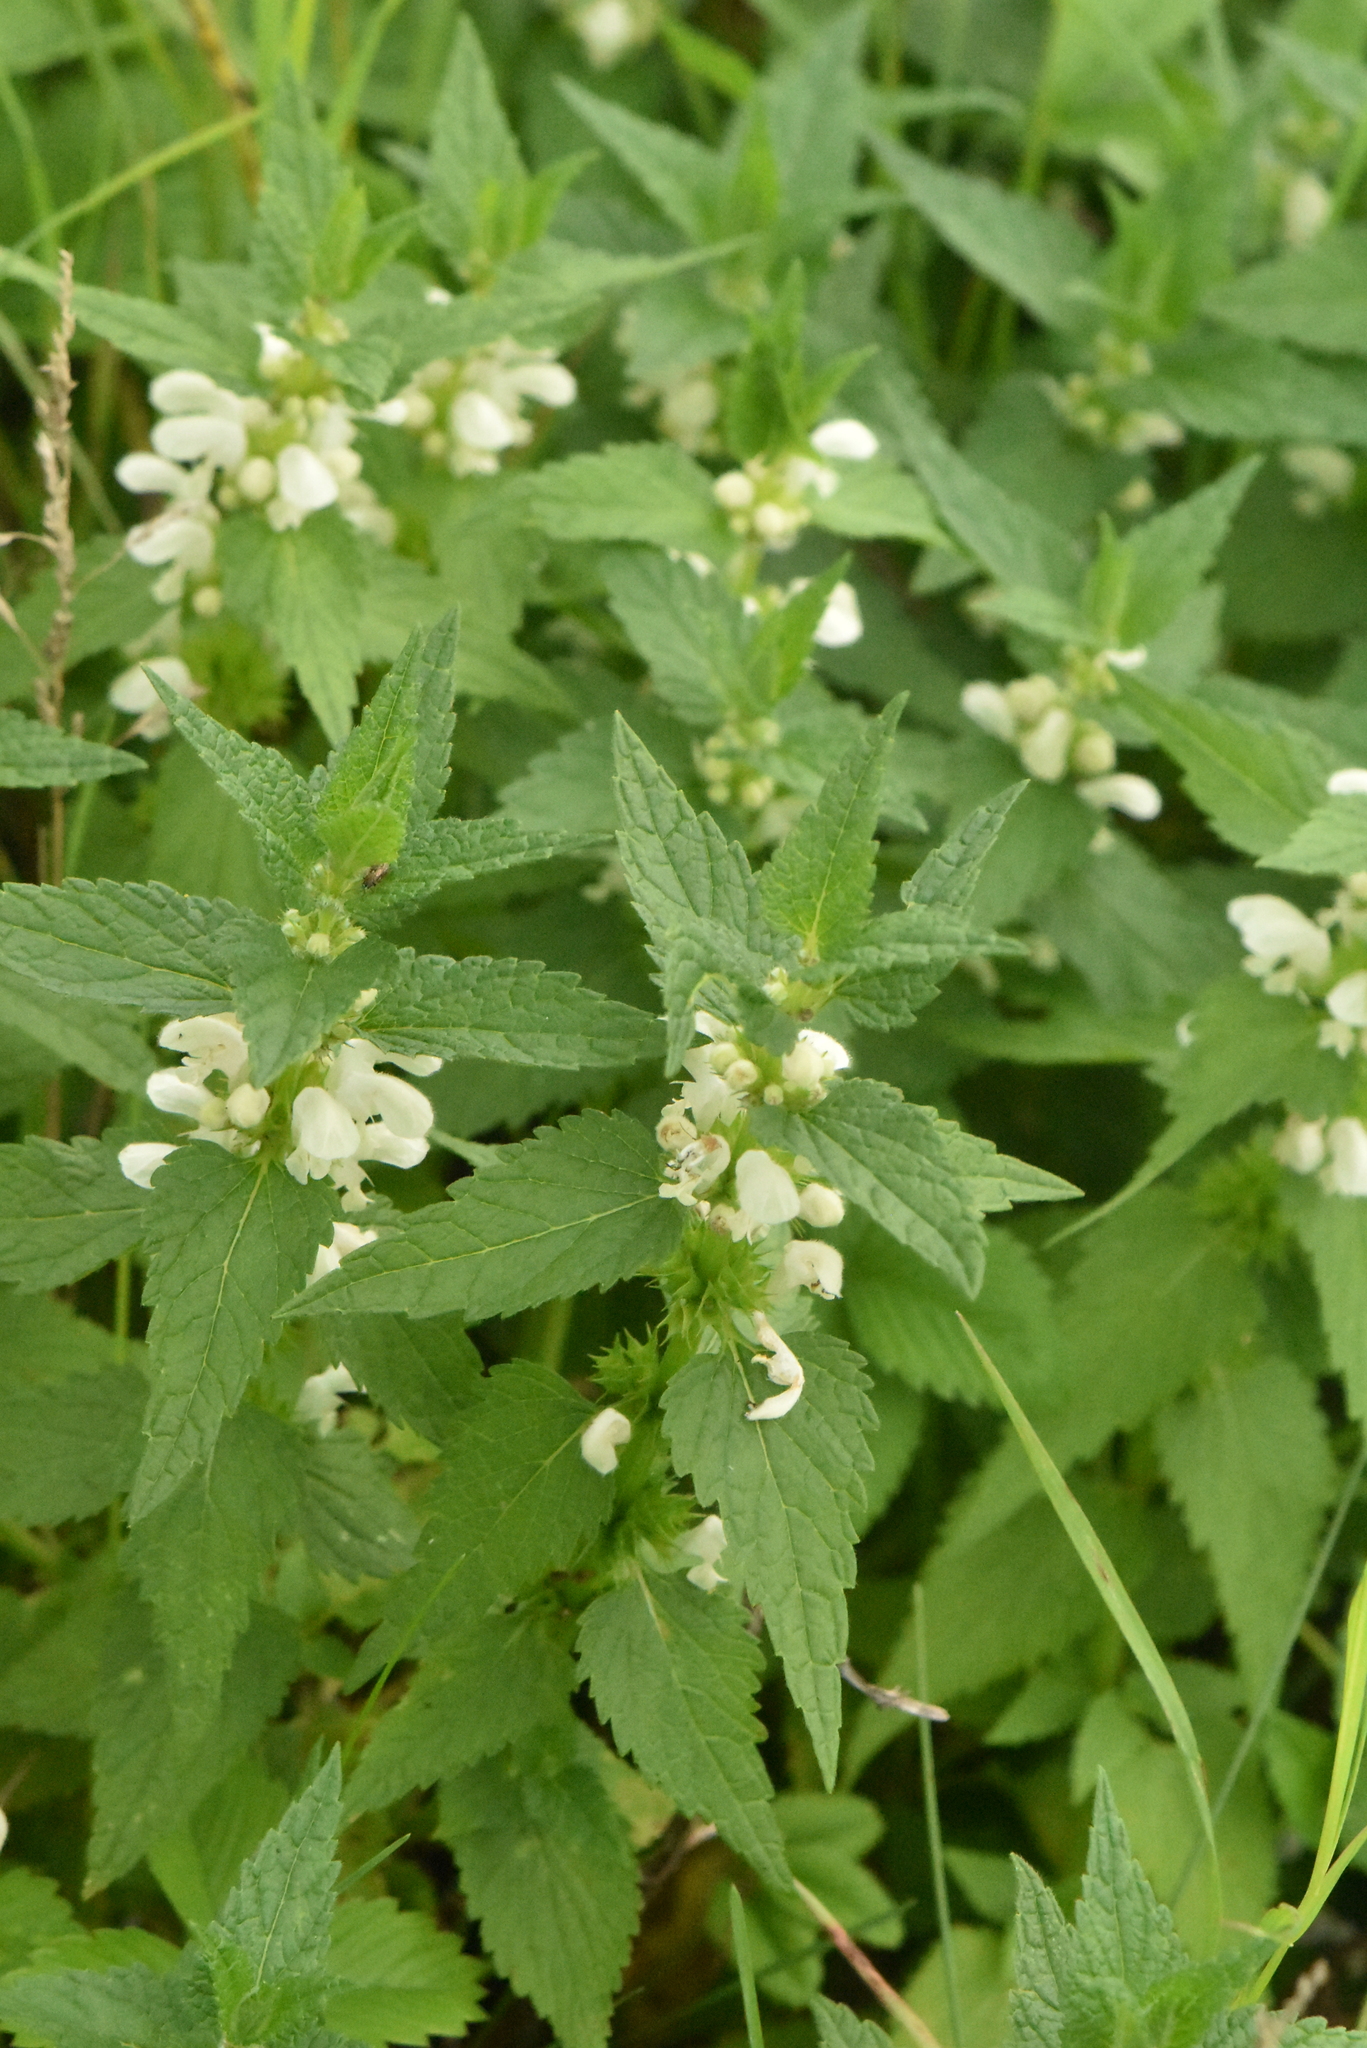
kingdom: Plantae
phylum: Tracheophyta
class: Magnoliopsida
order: Lamiales
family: Lamiaceae
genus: Lamium
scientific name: Lamium album
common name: White dead-nettle
